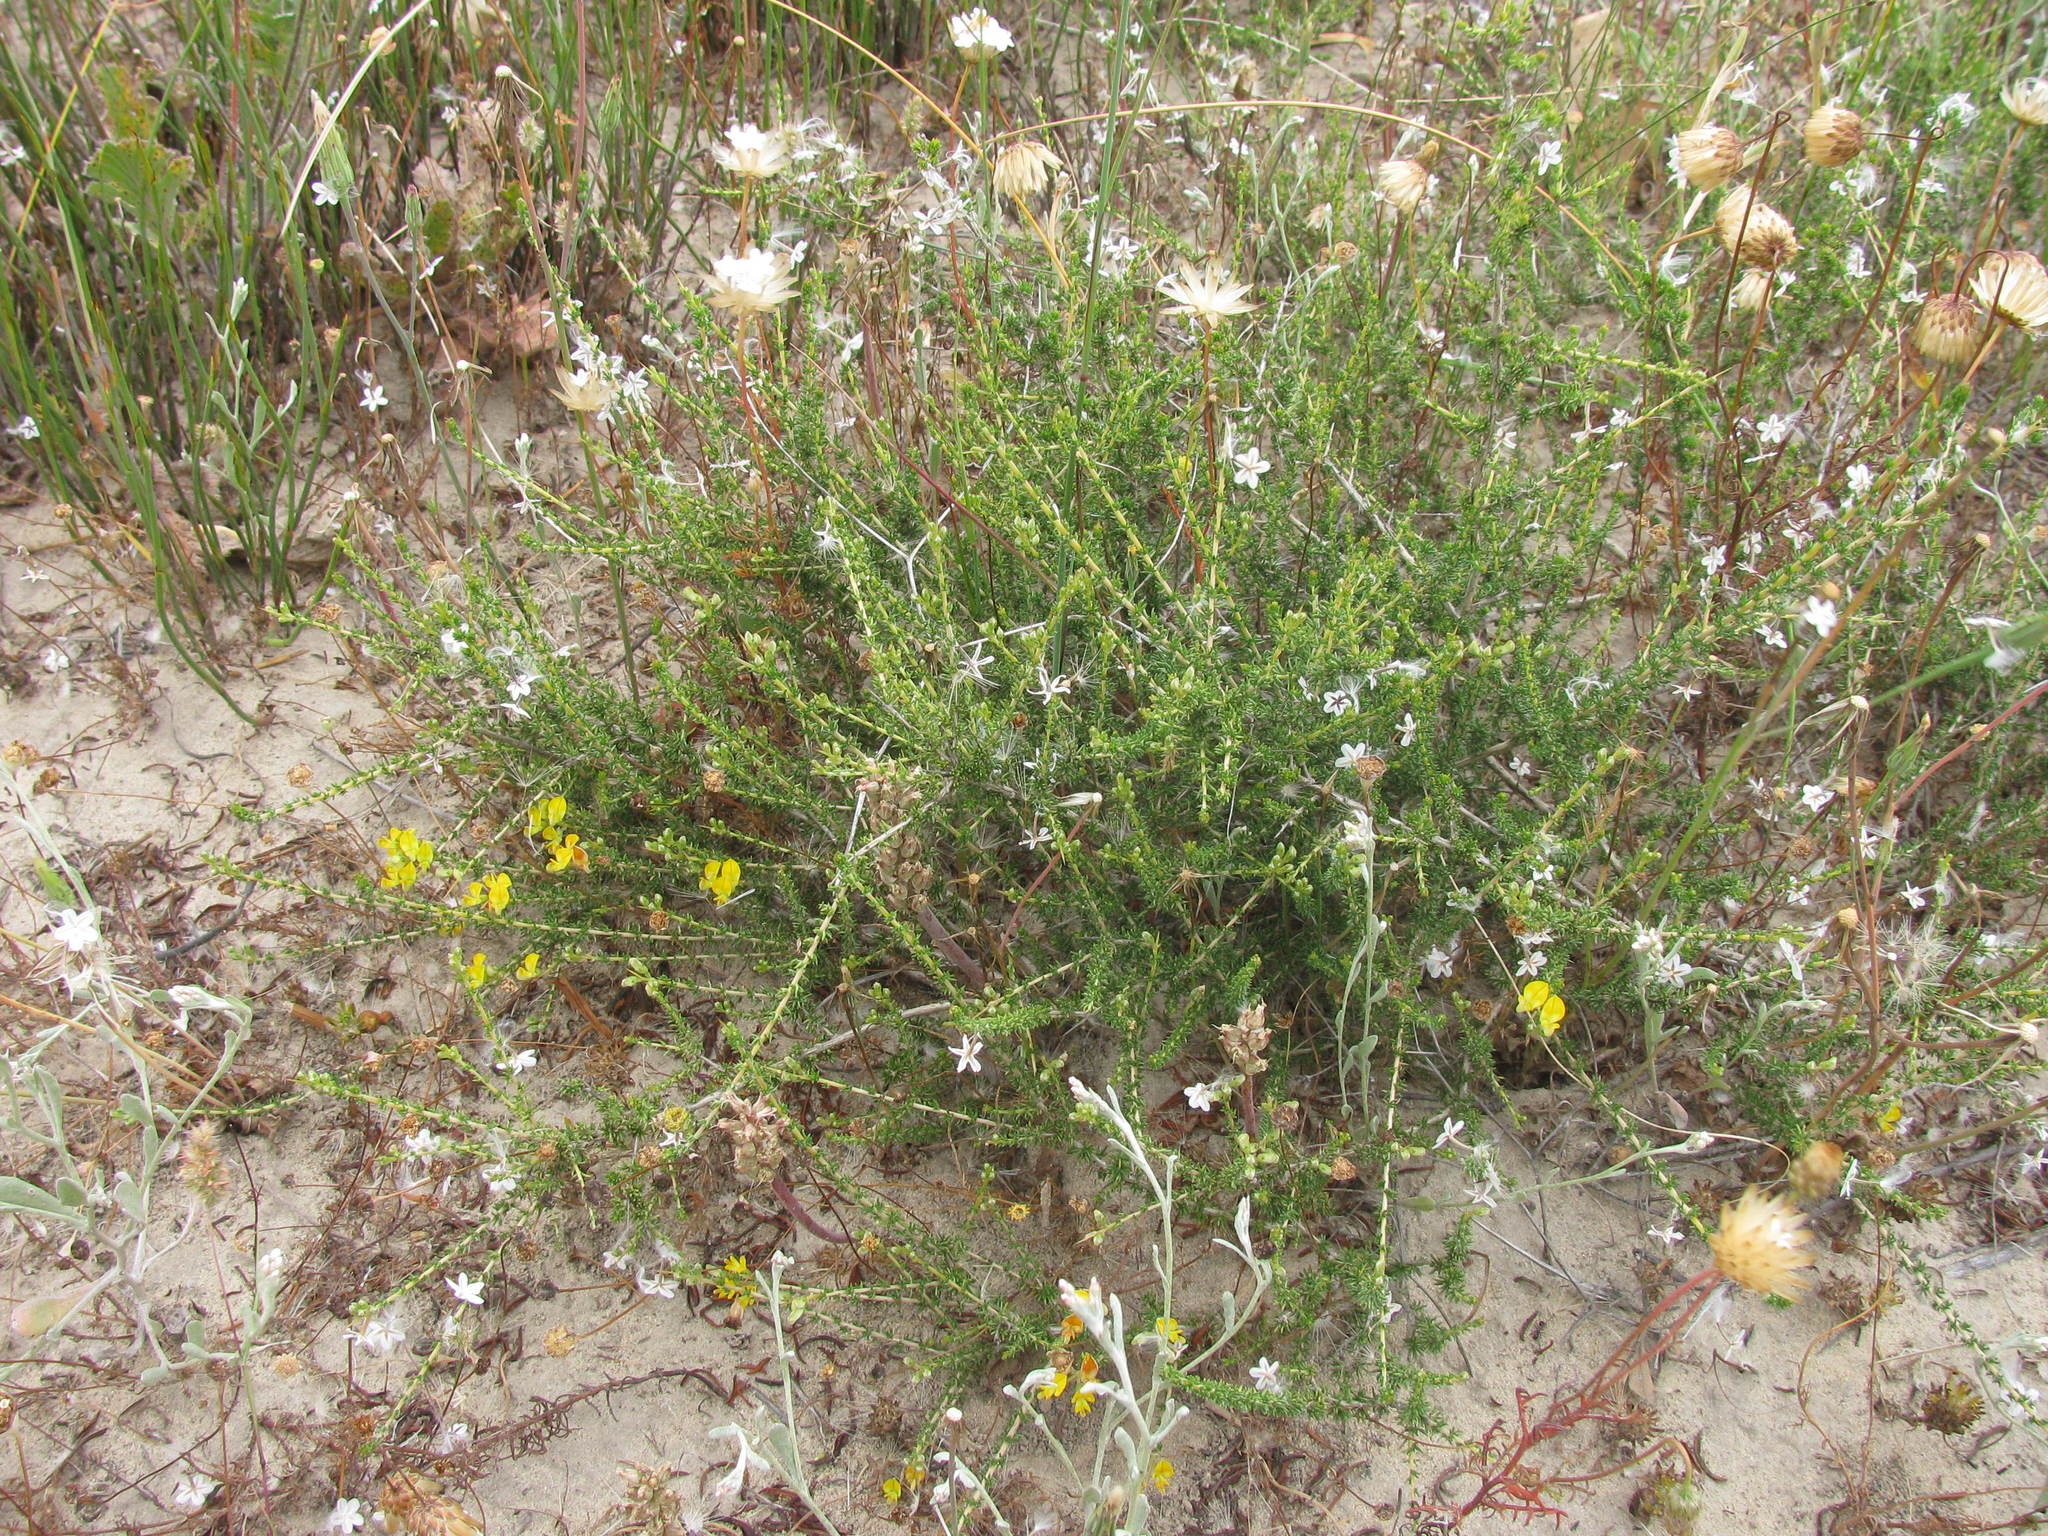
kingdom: Plantae
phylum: Tracheophyta
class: Magnoliopsida
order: Fabales
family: Fabaceae
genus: Aspalathus
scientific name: Aspalathus acuminata
